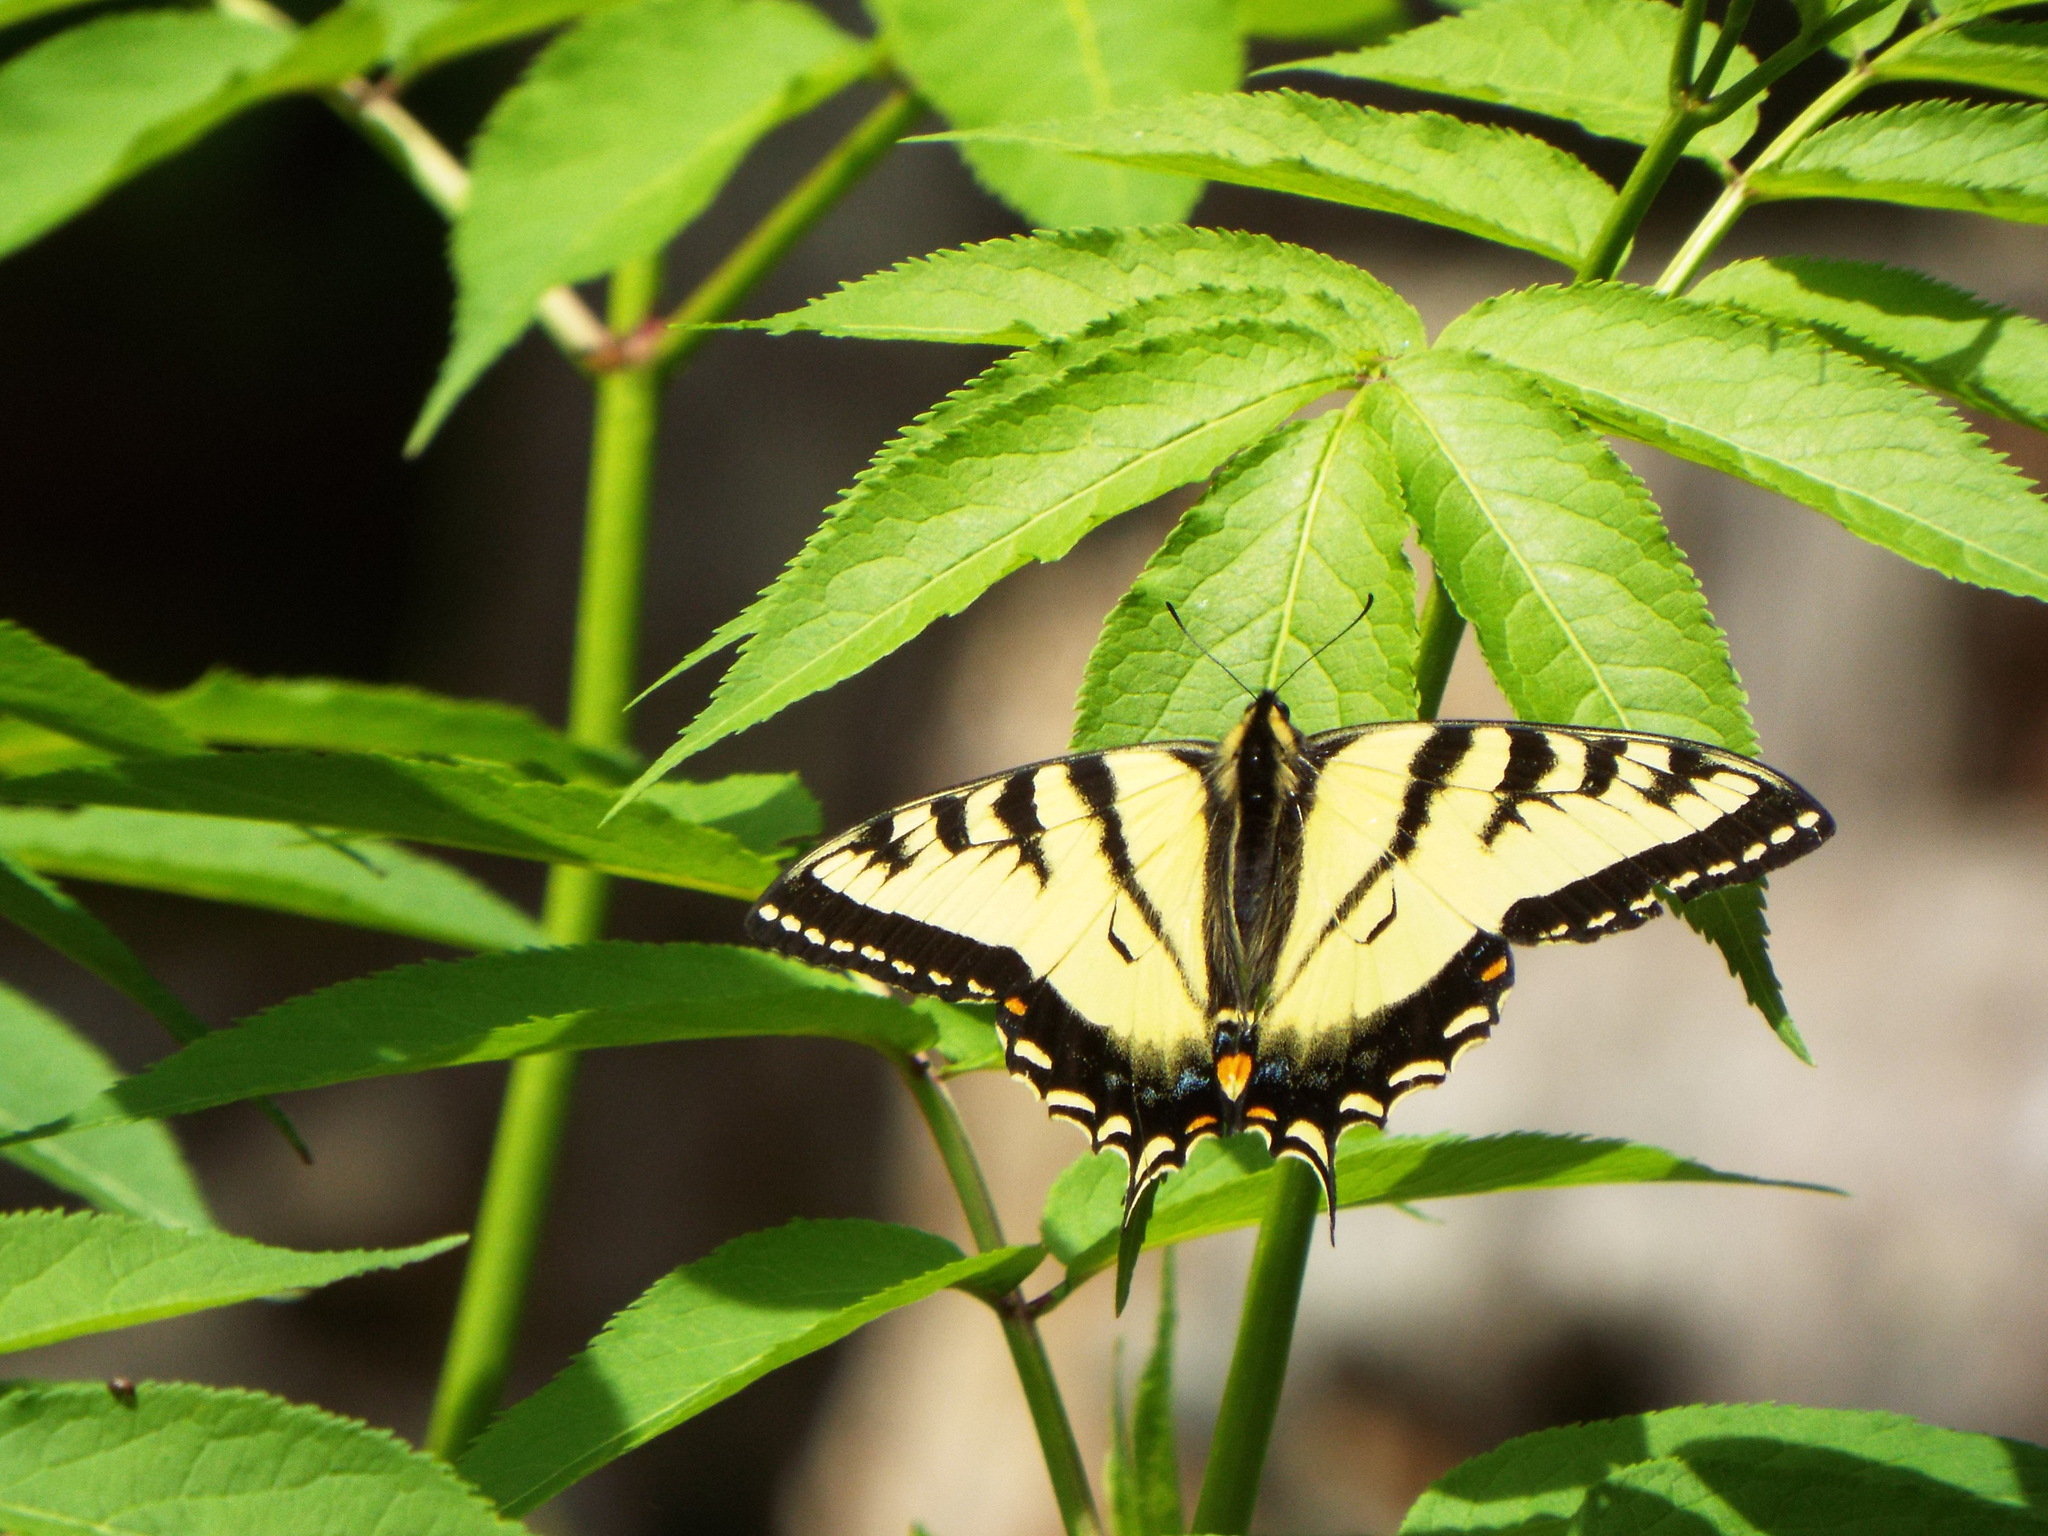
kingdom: Animalia
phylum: Arthropoda
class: Insecta
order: Lepidoptera
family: Papilionidae
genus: Papilio
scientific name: Papilio canadensis
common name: Canadian tiger swallowtail
